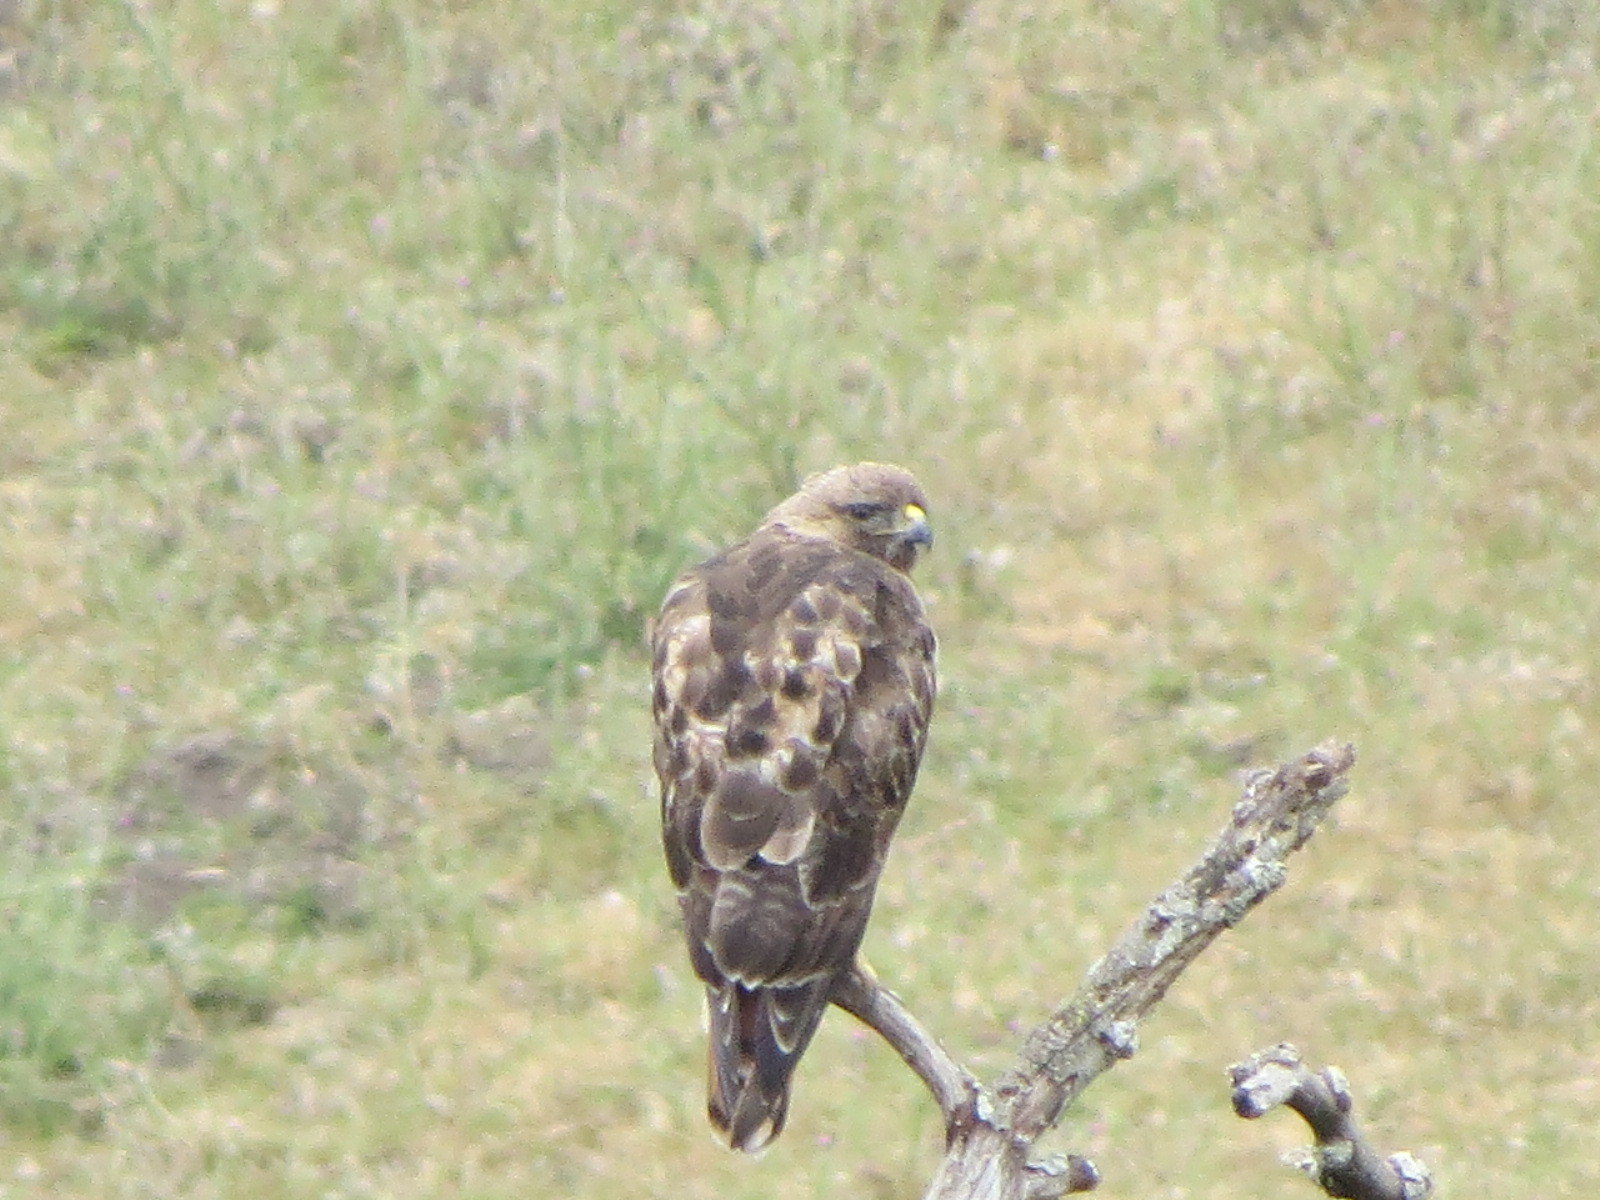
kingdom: Animalia
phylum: Chordata
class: Aves
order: Accipitriformes
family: Accipitridae
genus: Buteo
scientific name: Buteo jamaicensis
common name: Red-tailed hawk
